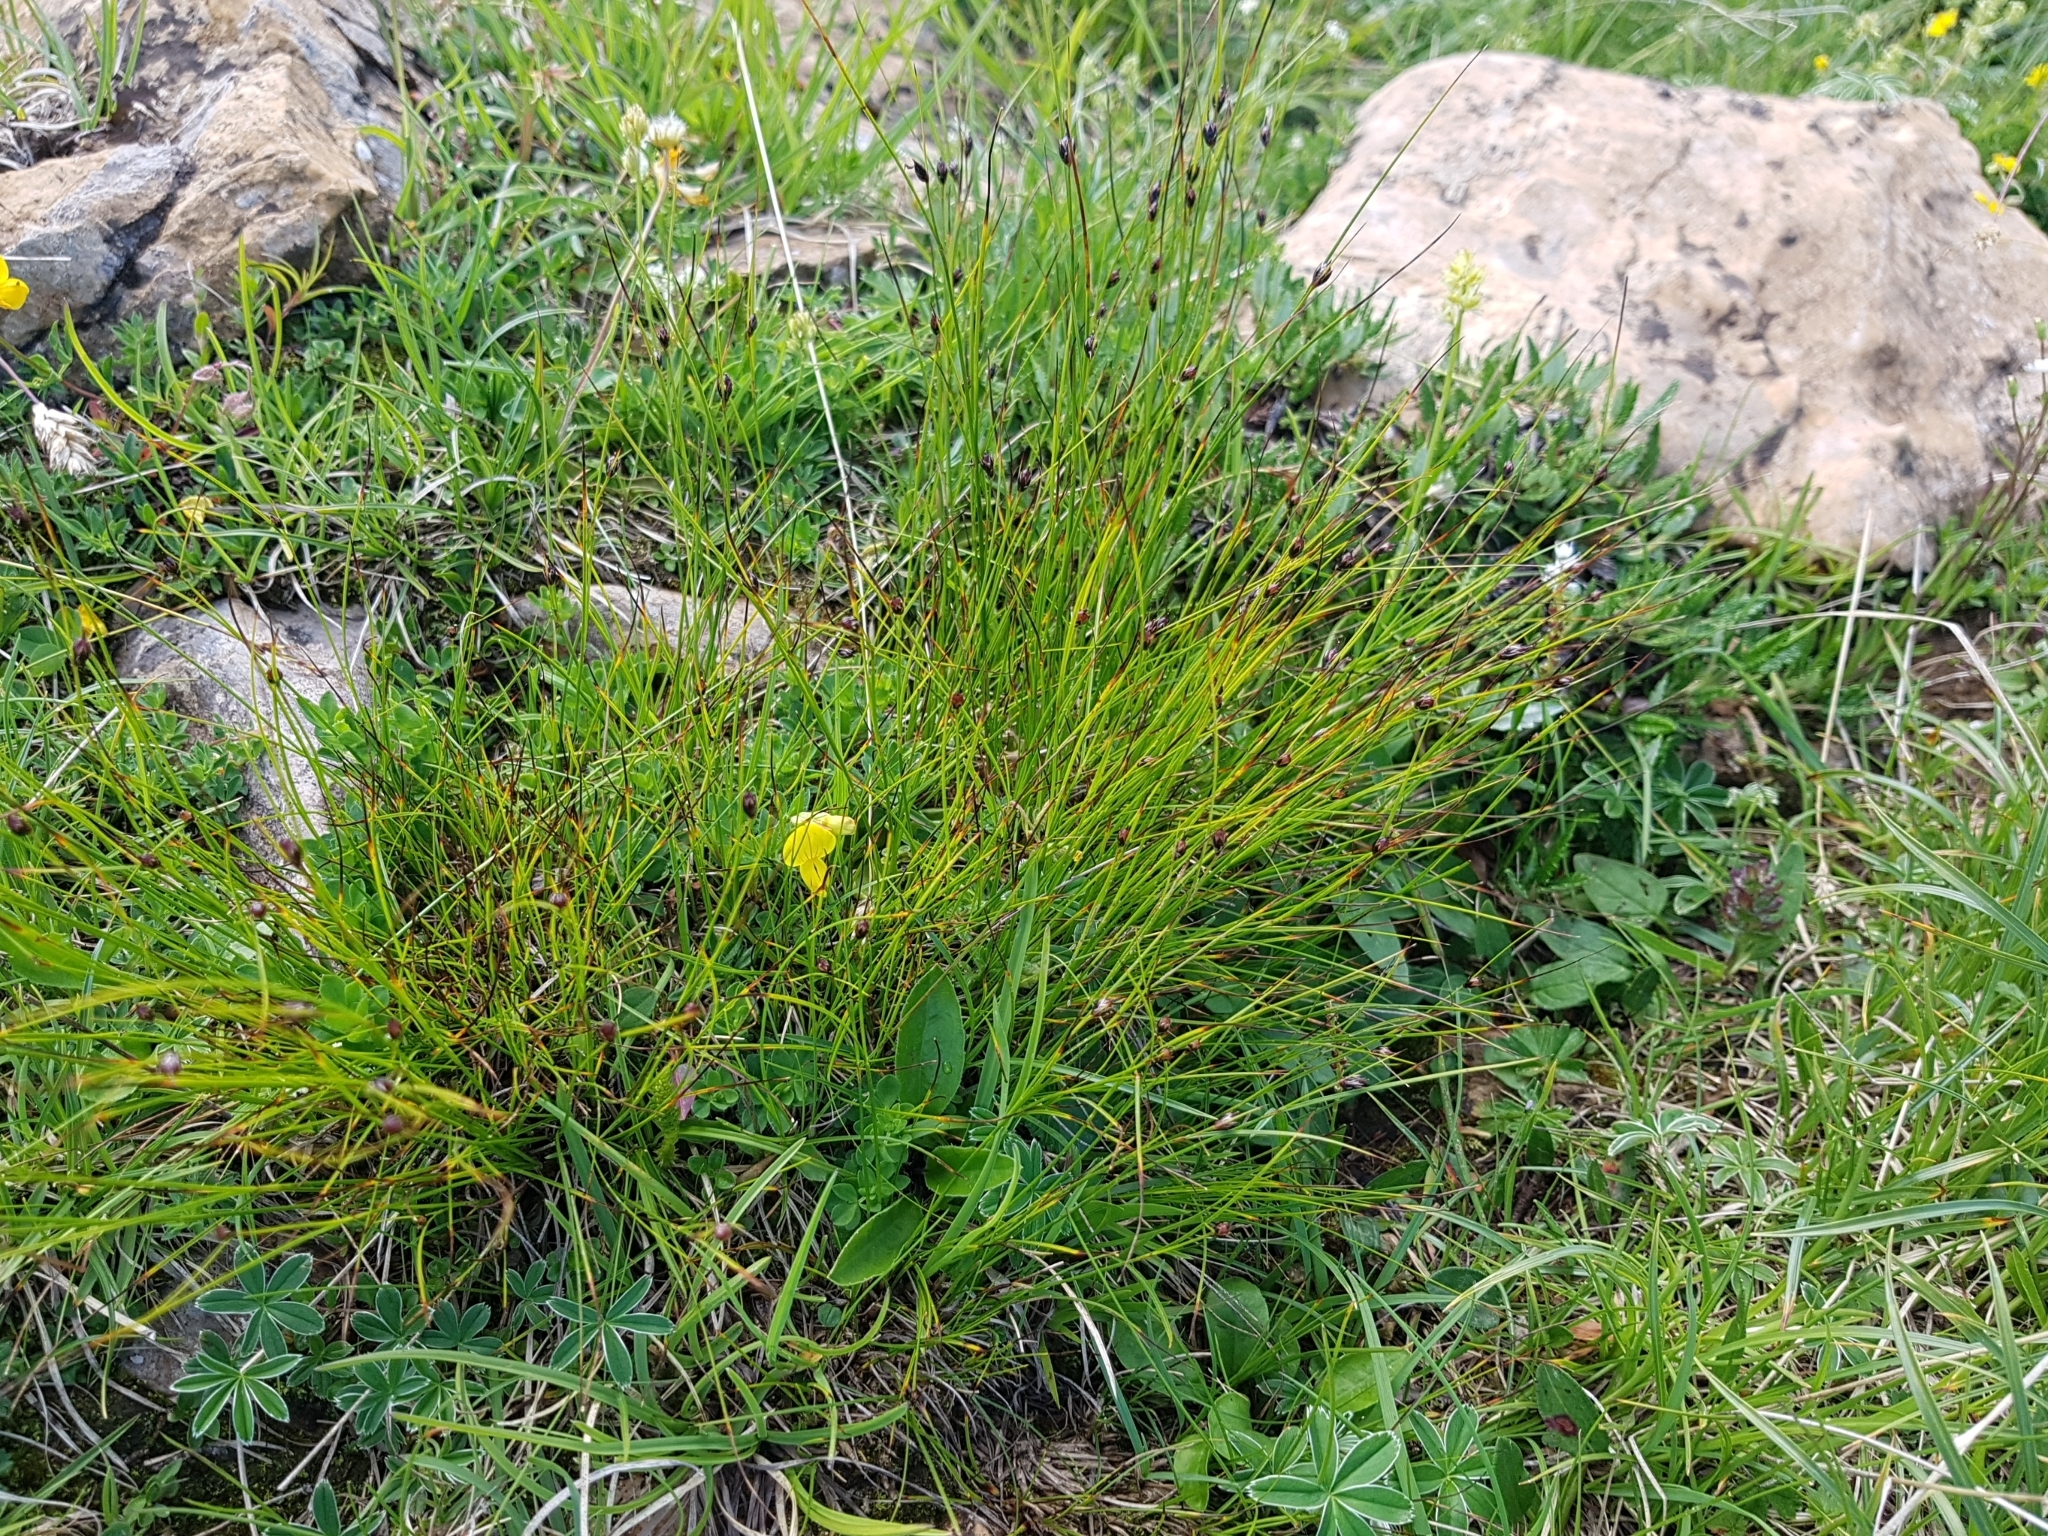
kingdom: Plantae
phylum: Tracheophyta
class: Liliopsida
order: Poales
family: Juncaceae
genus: Juncus
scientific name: Juncus jacquinii
